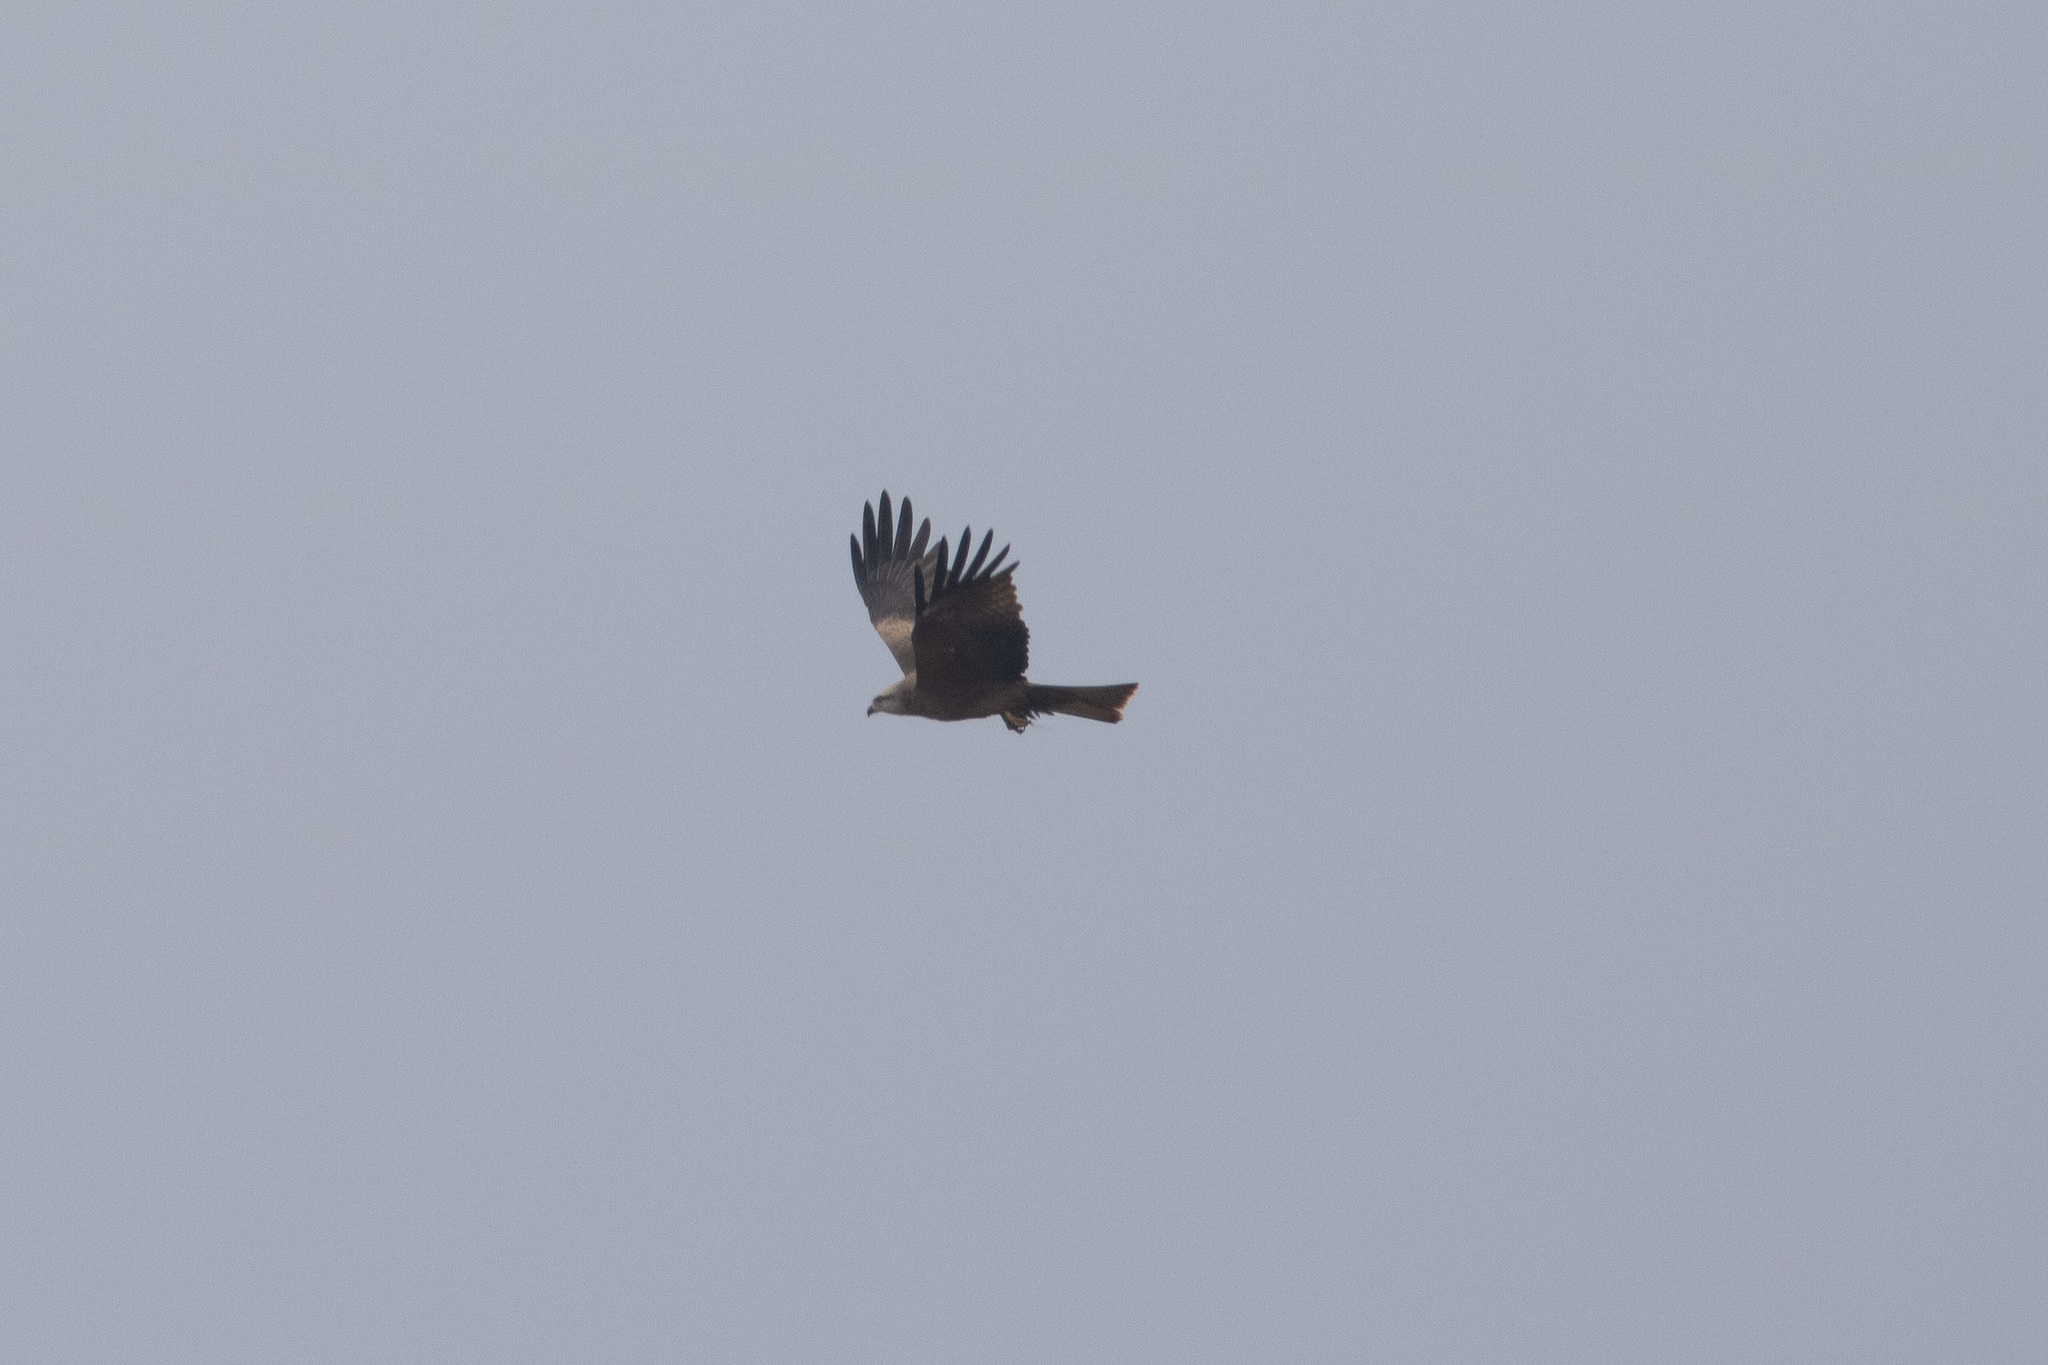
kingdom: Animalia
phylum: Chordata
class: Aves
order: Accipitriformes
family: Accipitridae
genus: Milvus
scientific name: Milvus migrans
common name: Black kite
